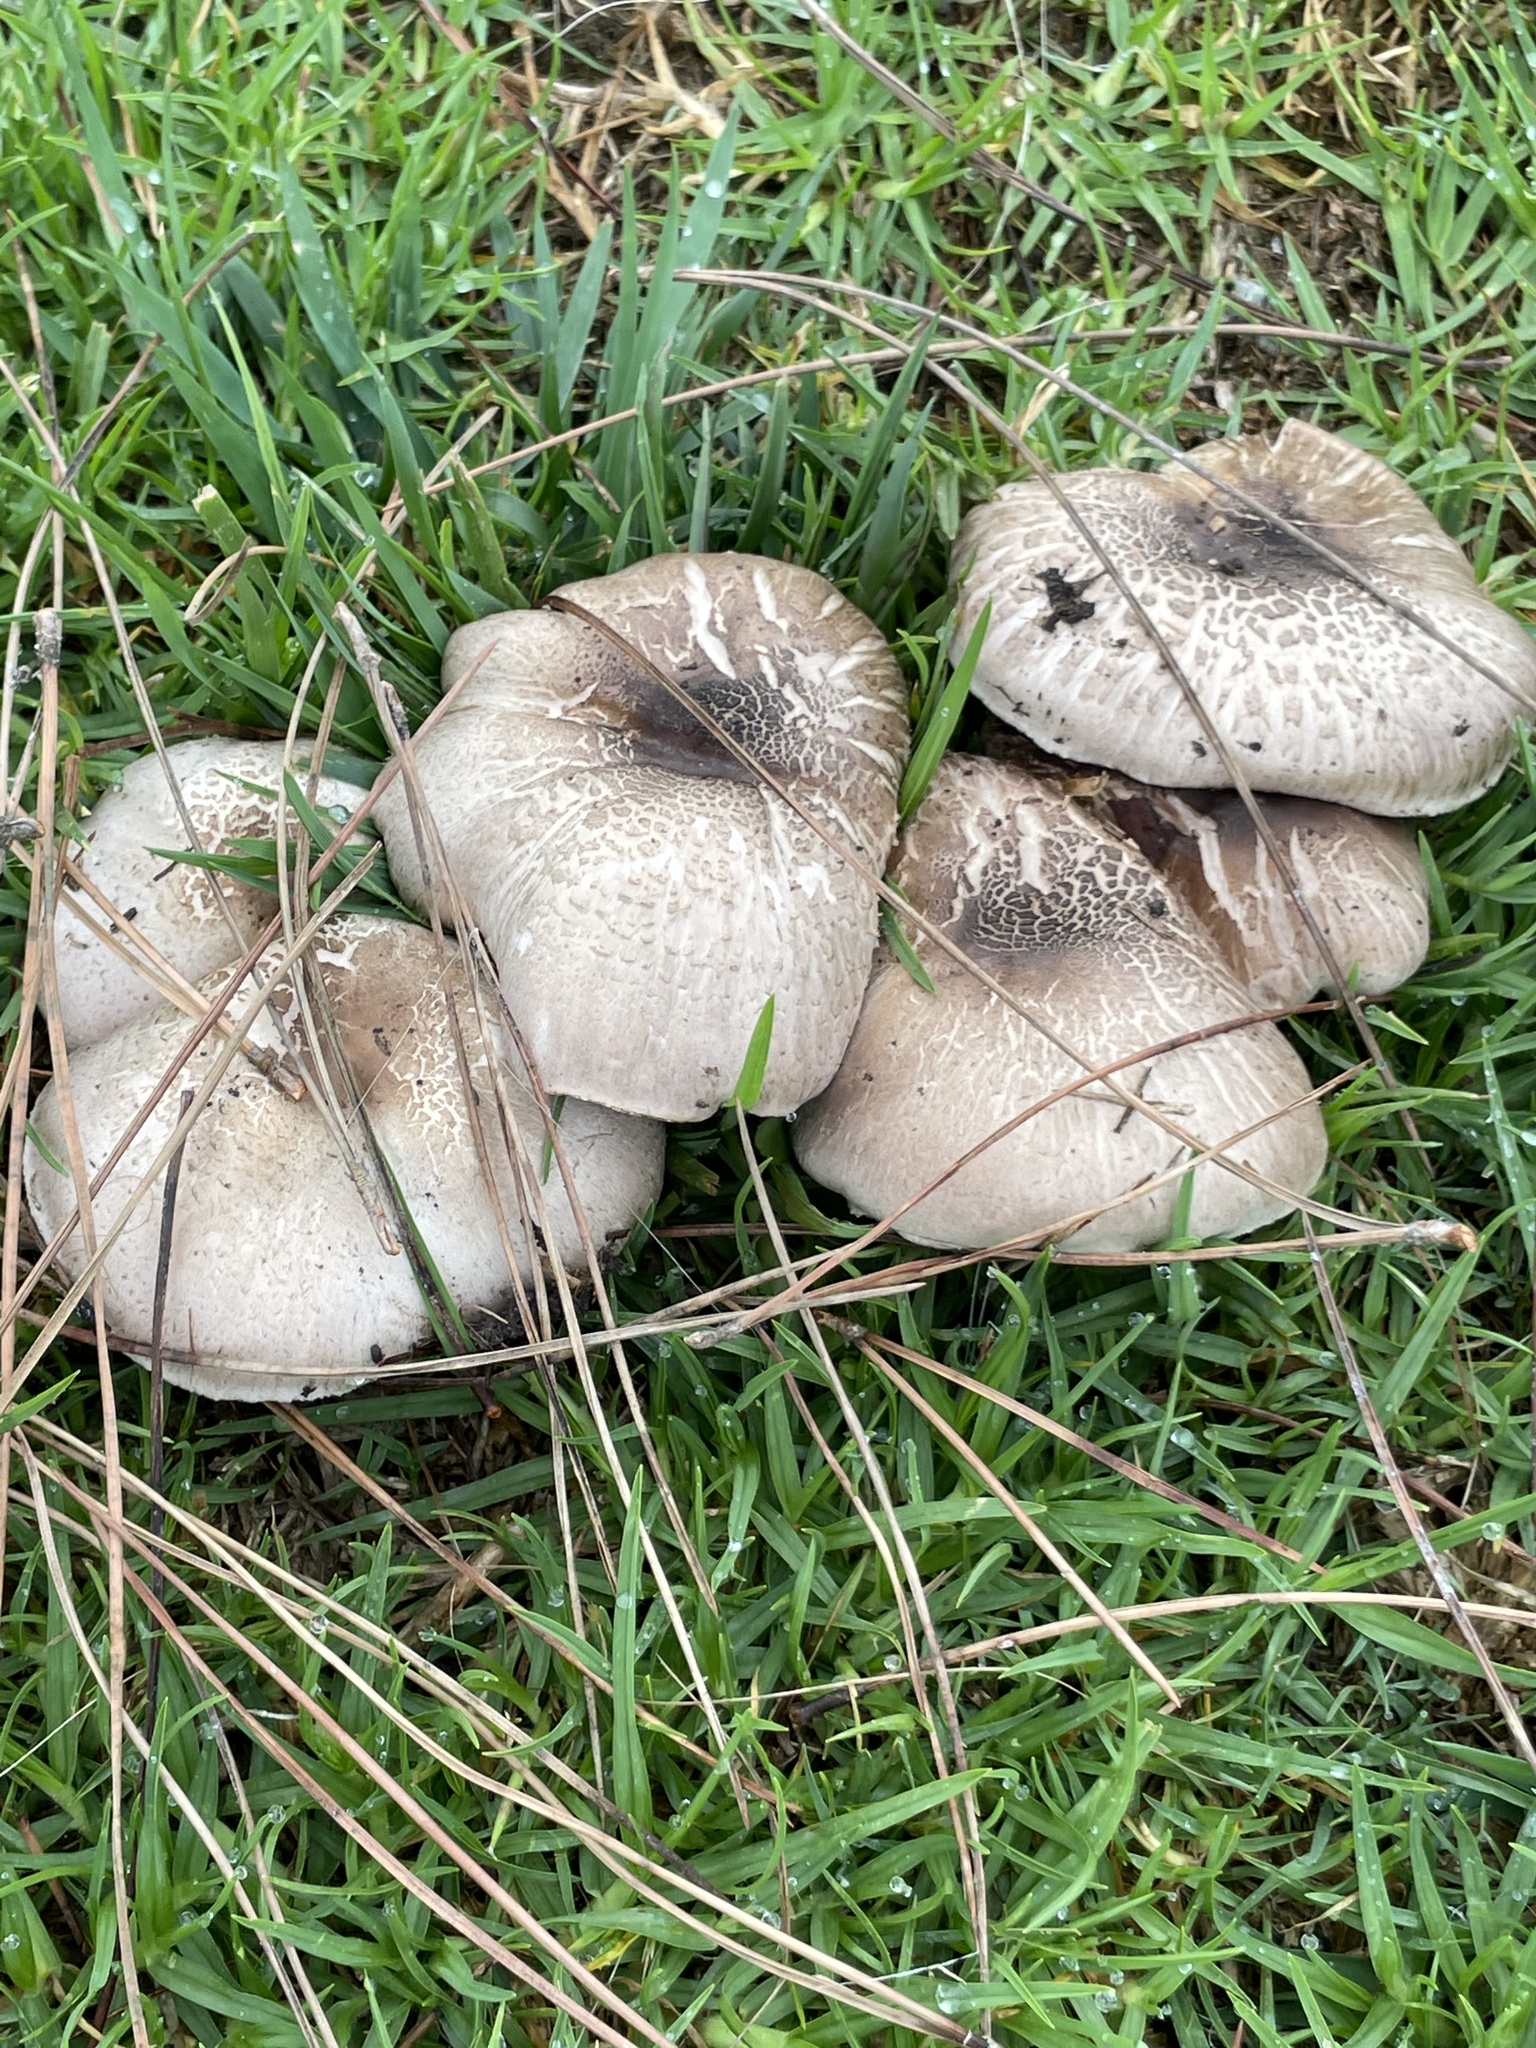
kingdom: Fungi
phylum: Basidiomycota
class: Agaricomycetes
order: Agaricales
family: Agaricaceae
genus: Agaricus
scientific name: Agaricus californicus
